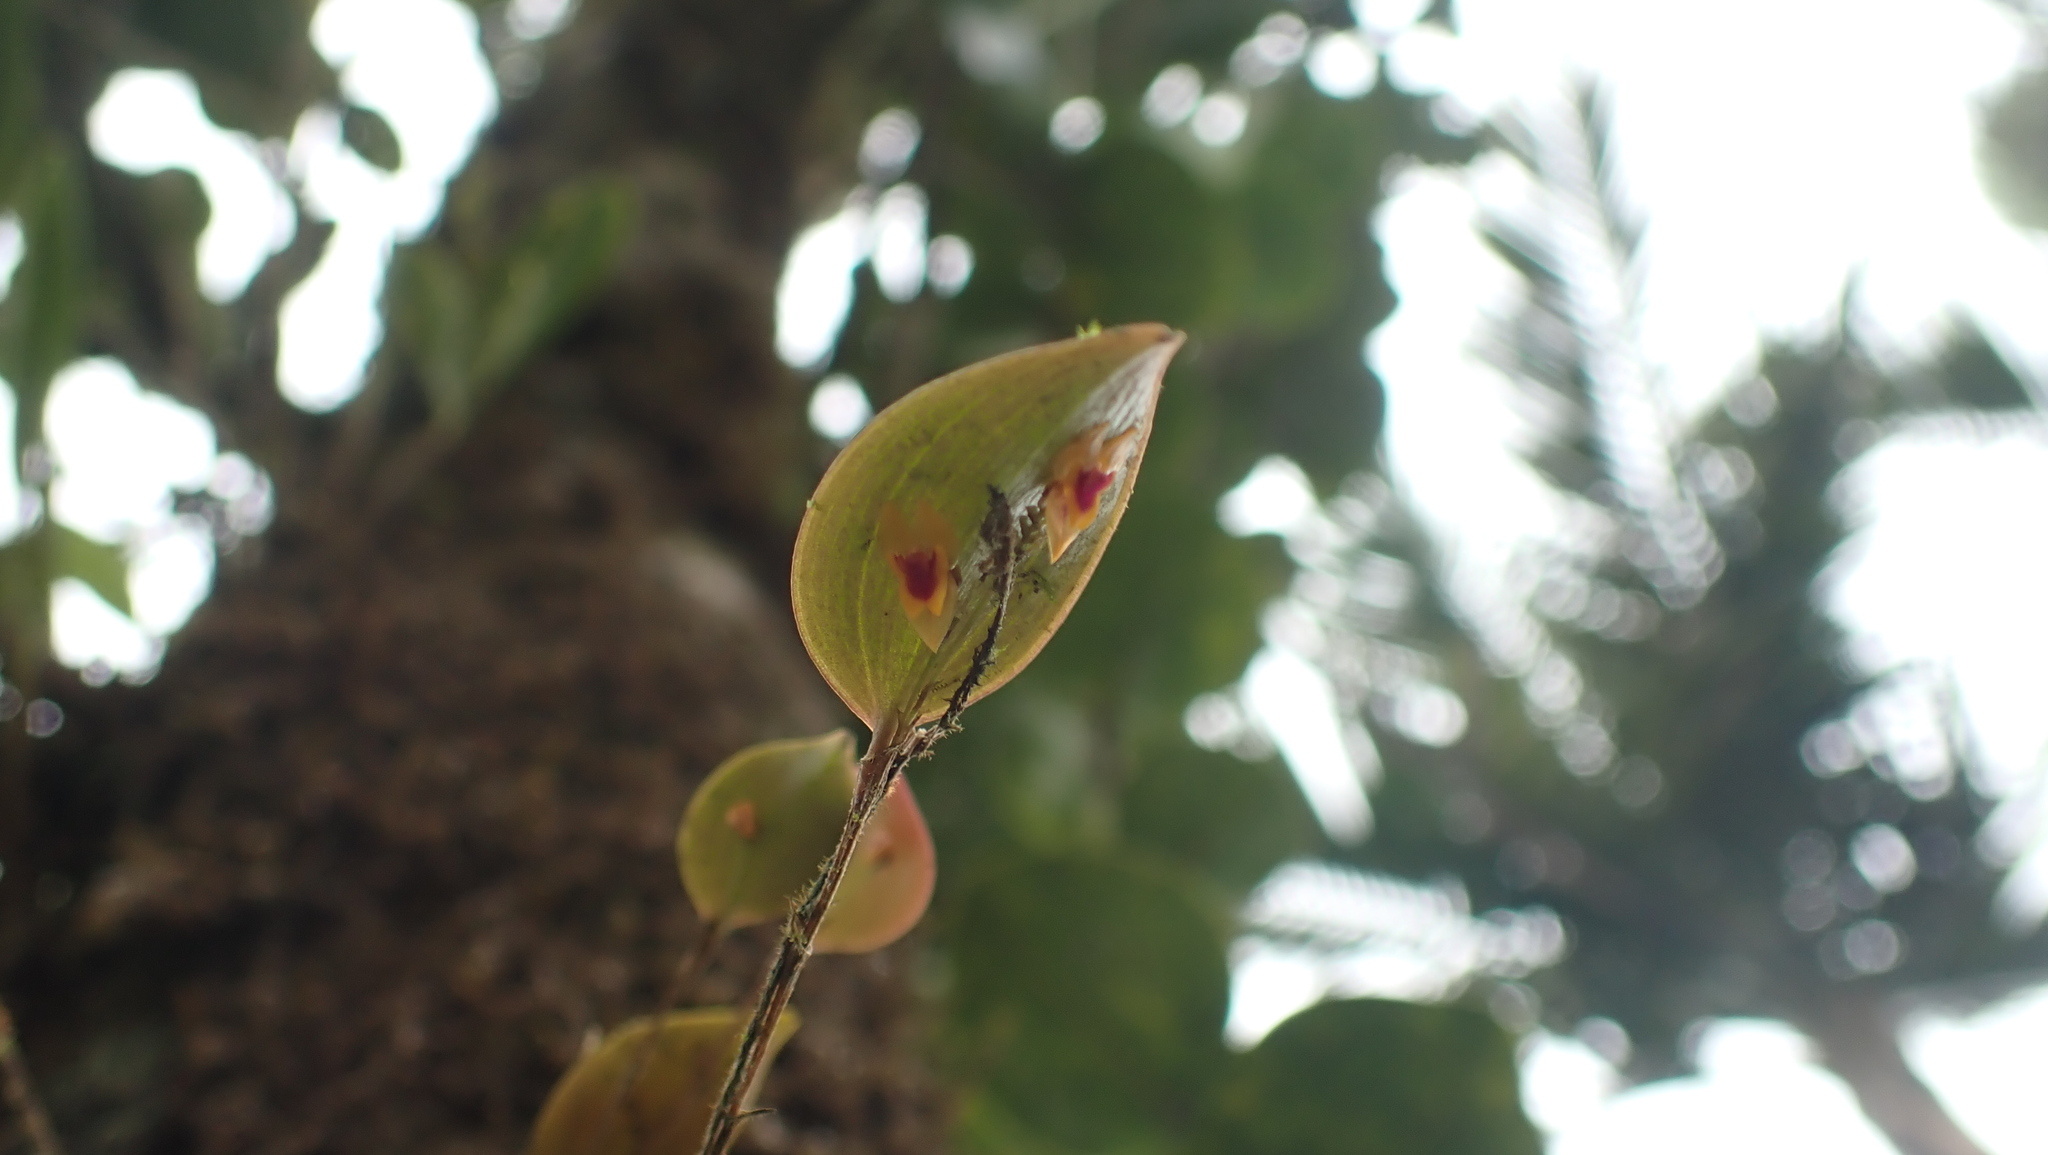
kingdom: Plantae
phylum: Tracheophyta
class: Liliopsida
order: Asparagales
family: Orchidaceae
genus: Lepanthes
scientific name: Lepanthes woodburyana
